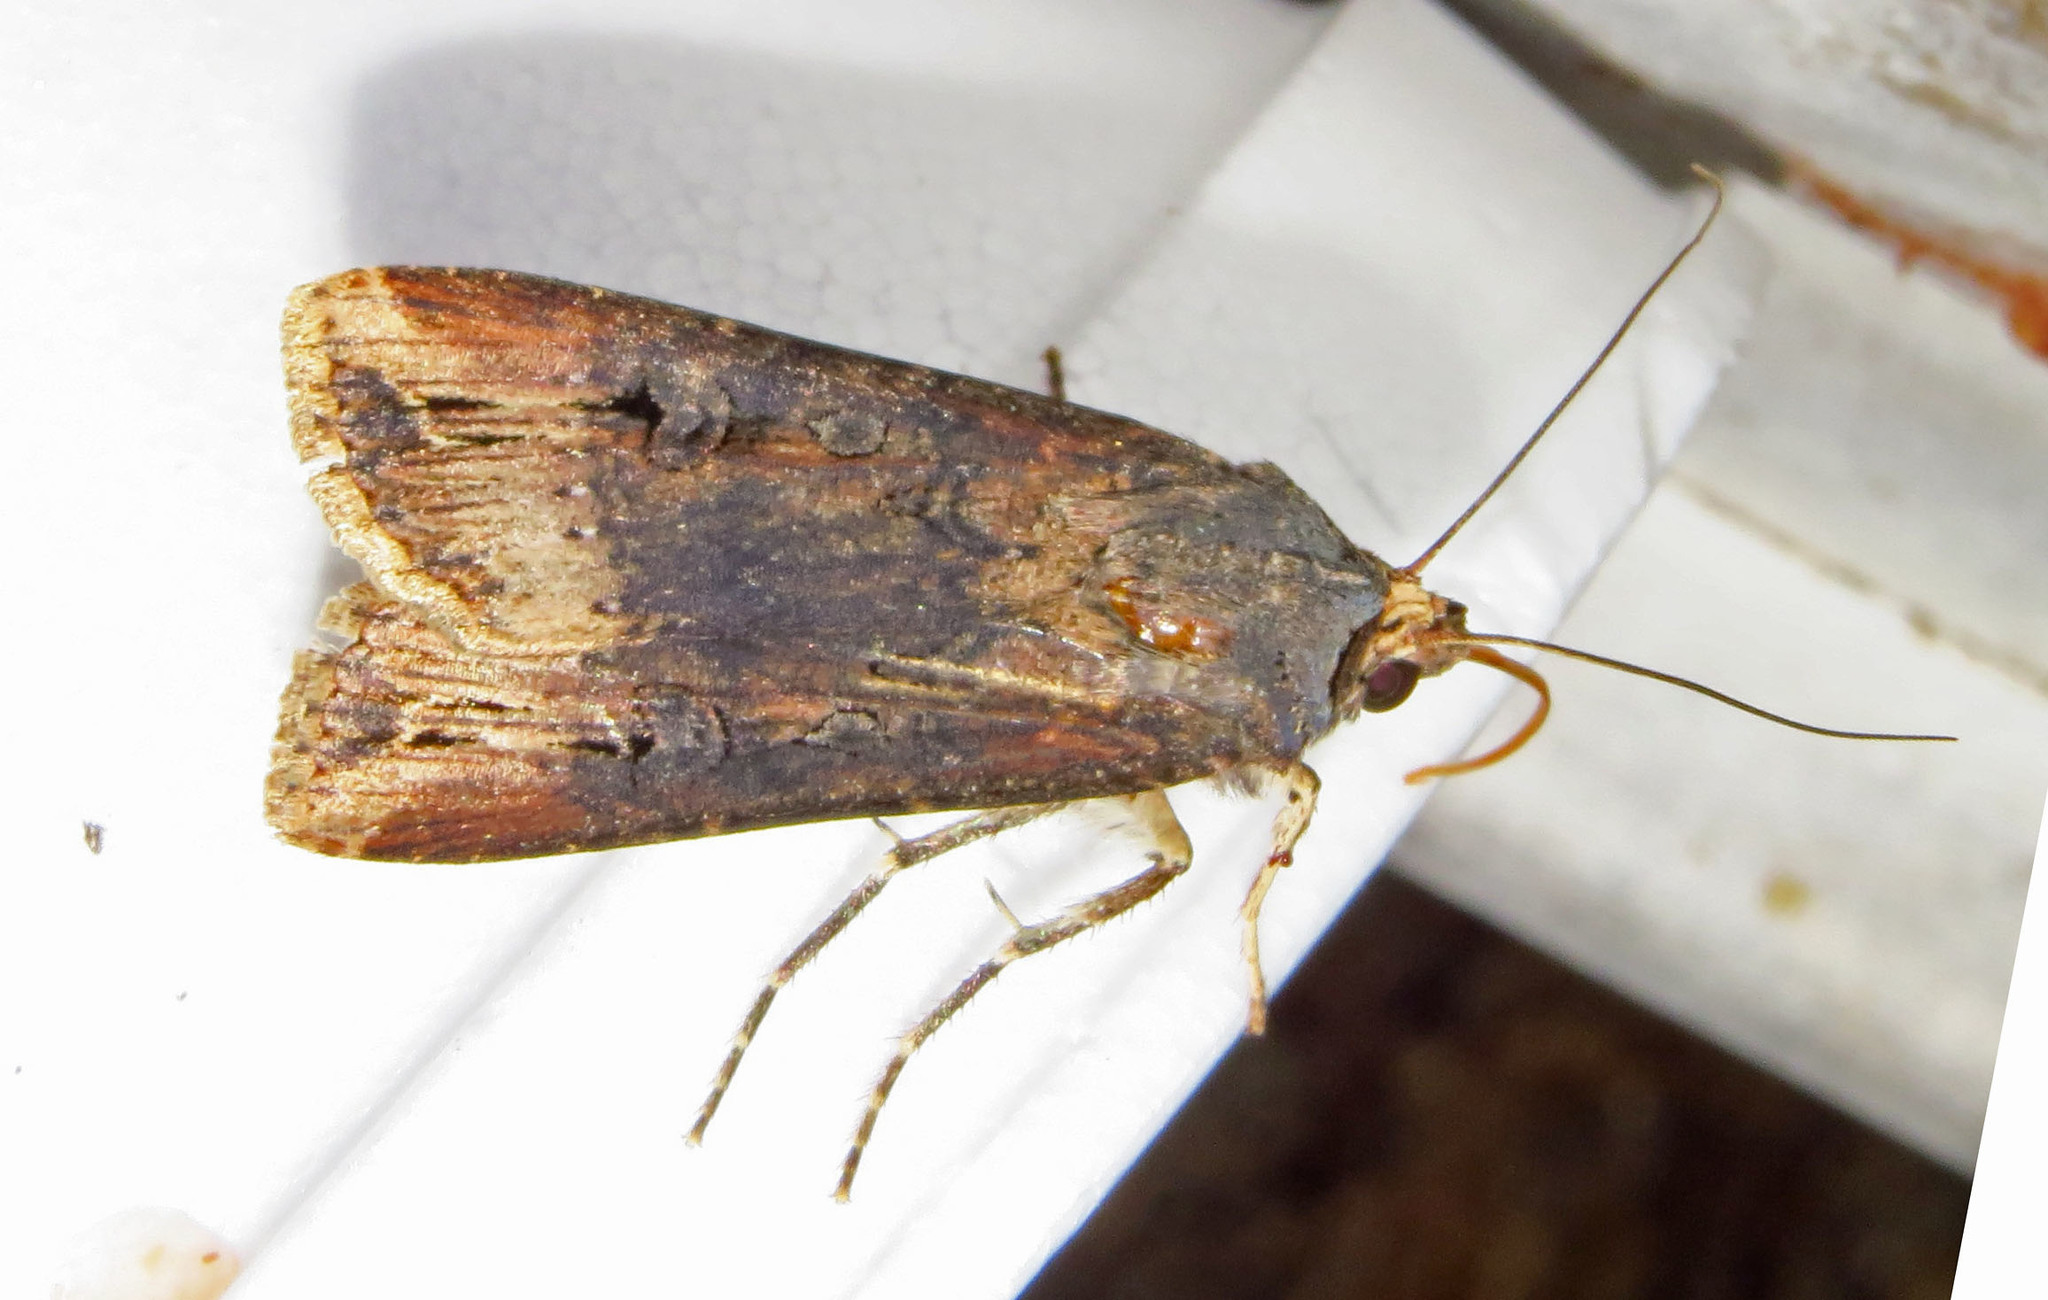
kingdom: Animalia
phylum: Arthropoda
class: Insecta
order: Lepidoptera
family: Noctuidae
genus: Agrotis
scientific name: Agrotis ipsilon
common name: Dark sword-grass
